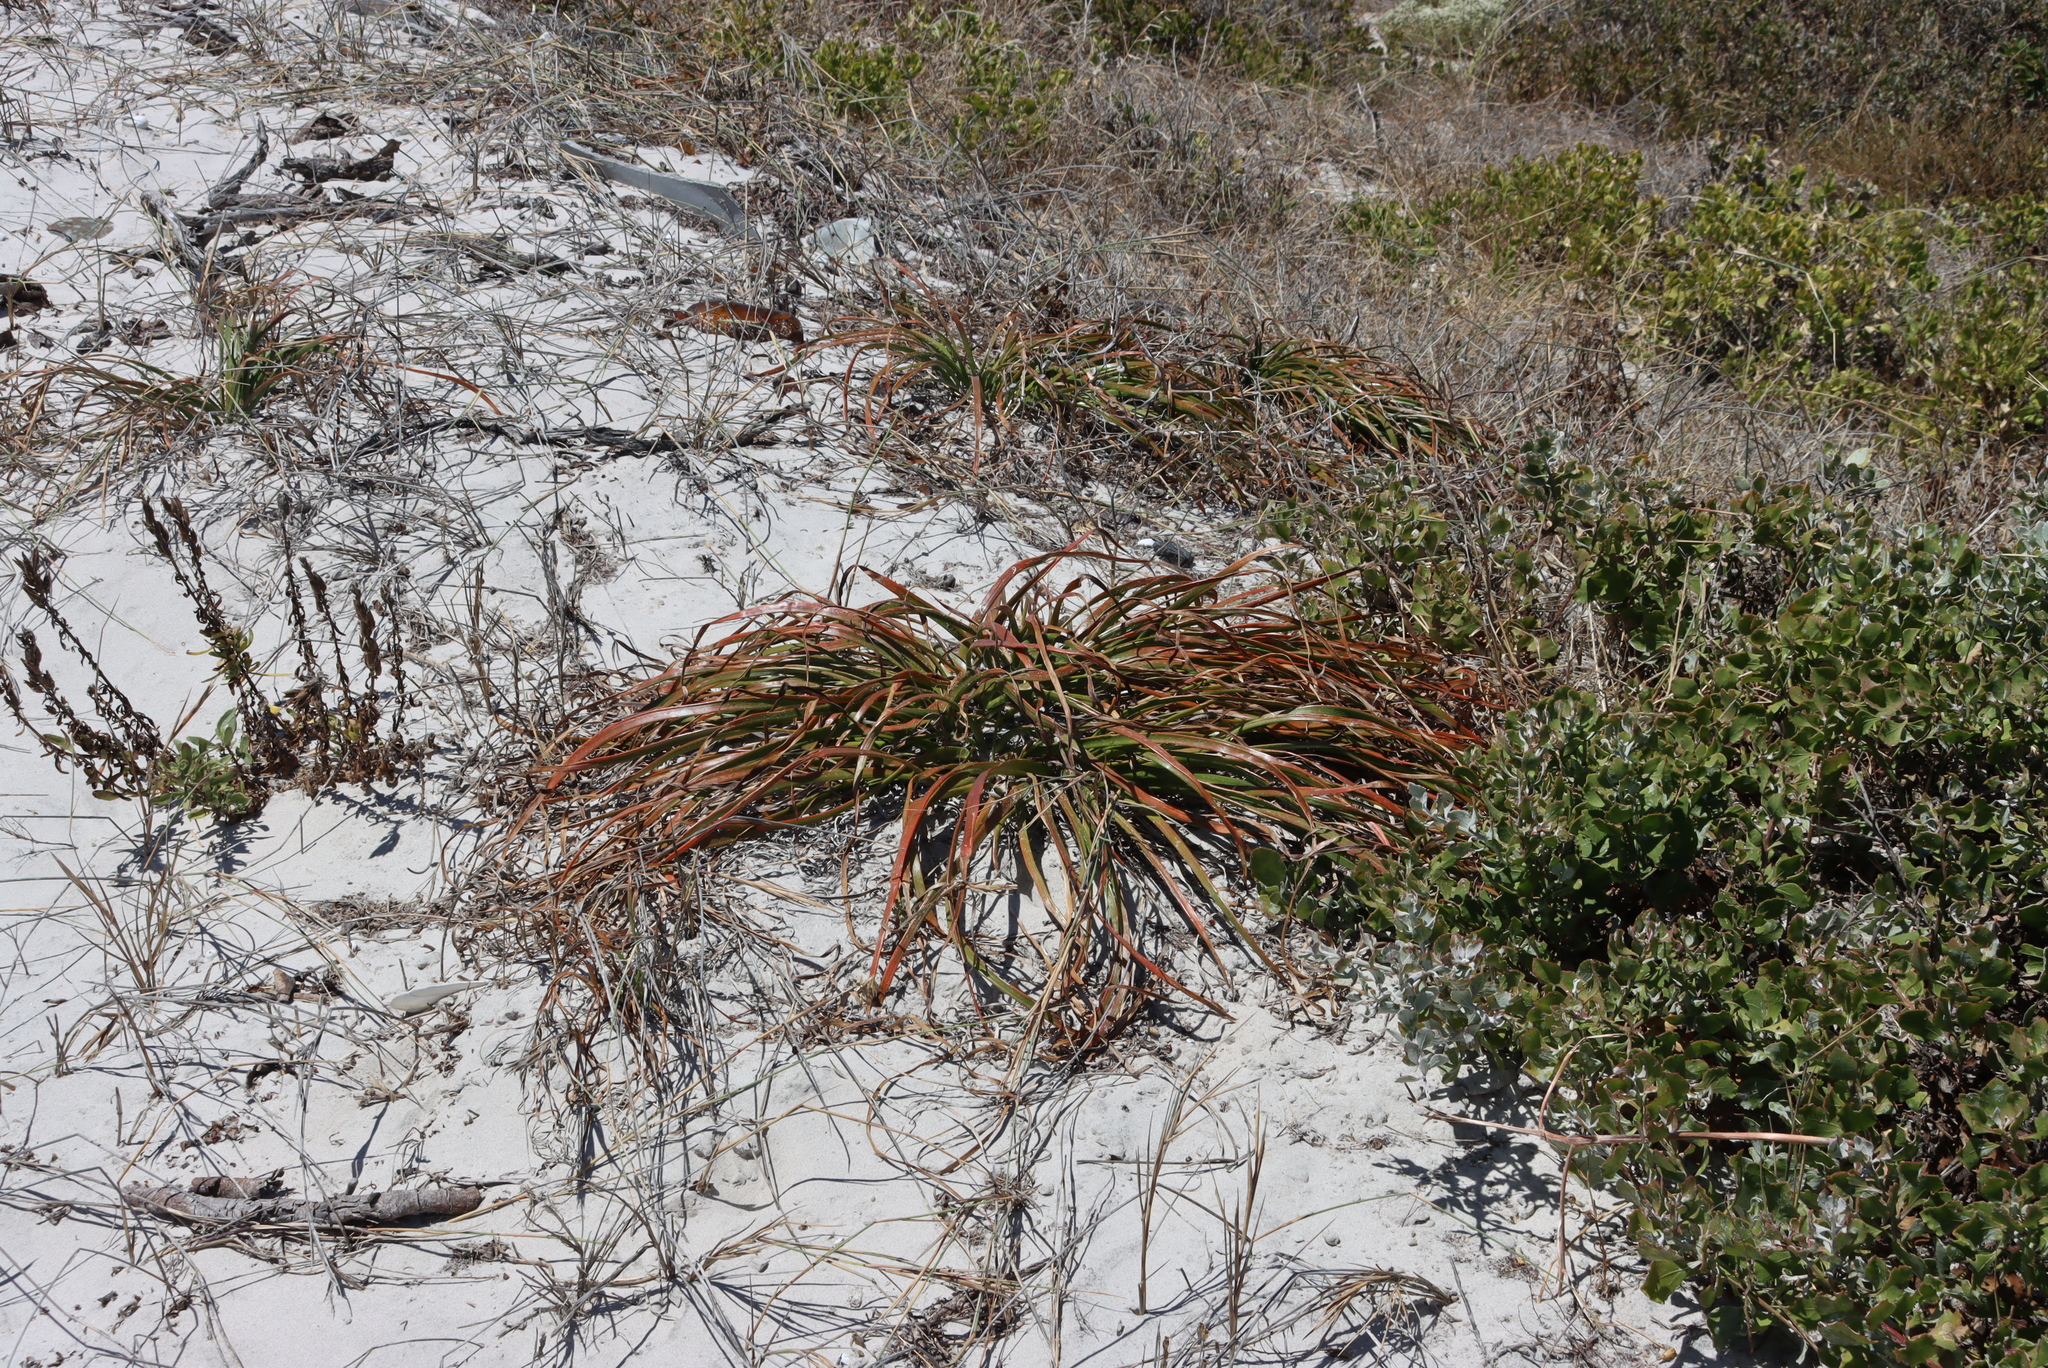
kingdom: Plantae
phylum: Tracheophyta
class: Liliopsida
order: Asparagales
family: Asphodelaceae
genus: Trachyandra
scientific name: Trachyandra divaricata
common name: Dune onionweed
